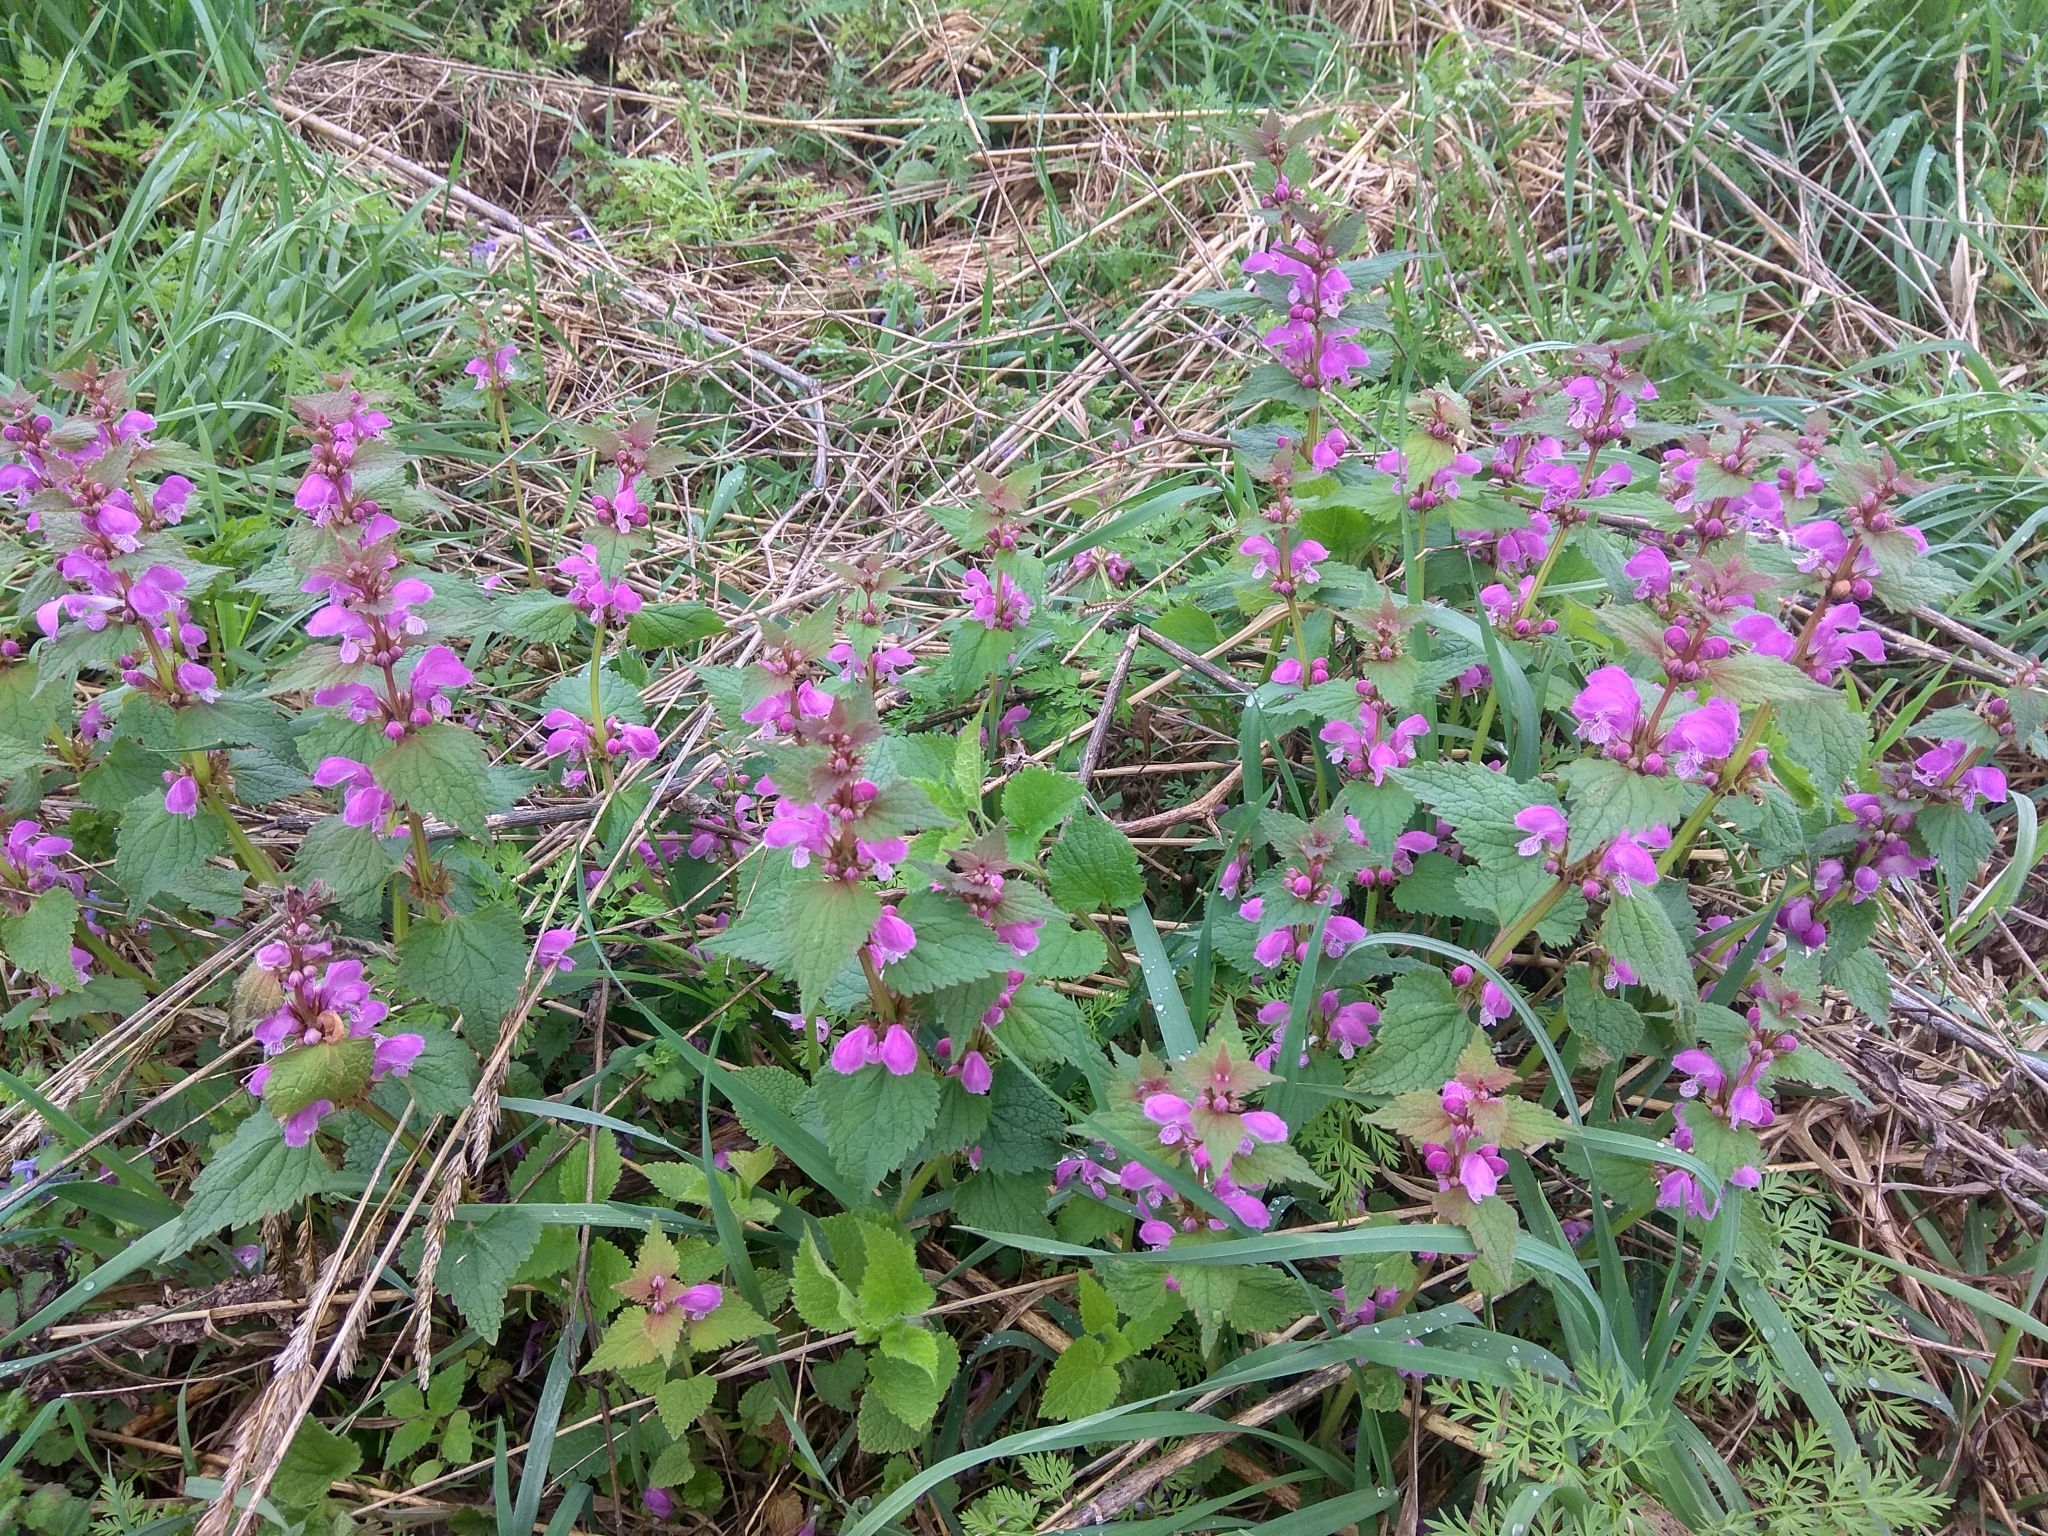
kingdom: Plantae
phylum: Tracheophyta
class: Magnoliopsida
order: Lamiales
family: Lamiaceae
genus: Lamium
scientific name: Lamium maculatum
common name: Spotted dead-nettle
